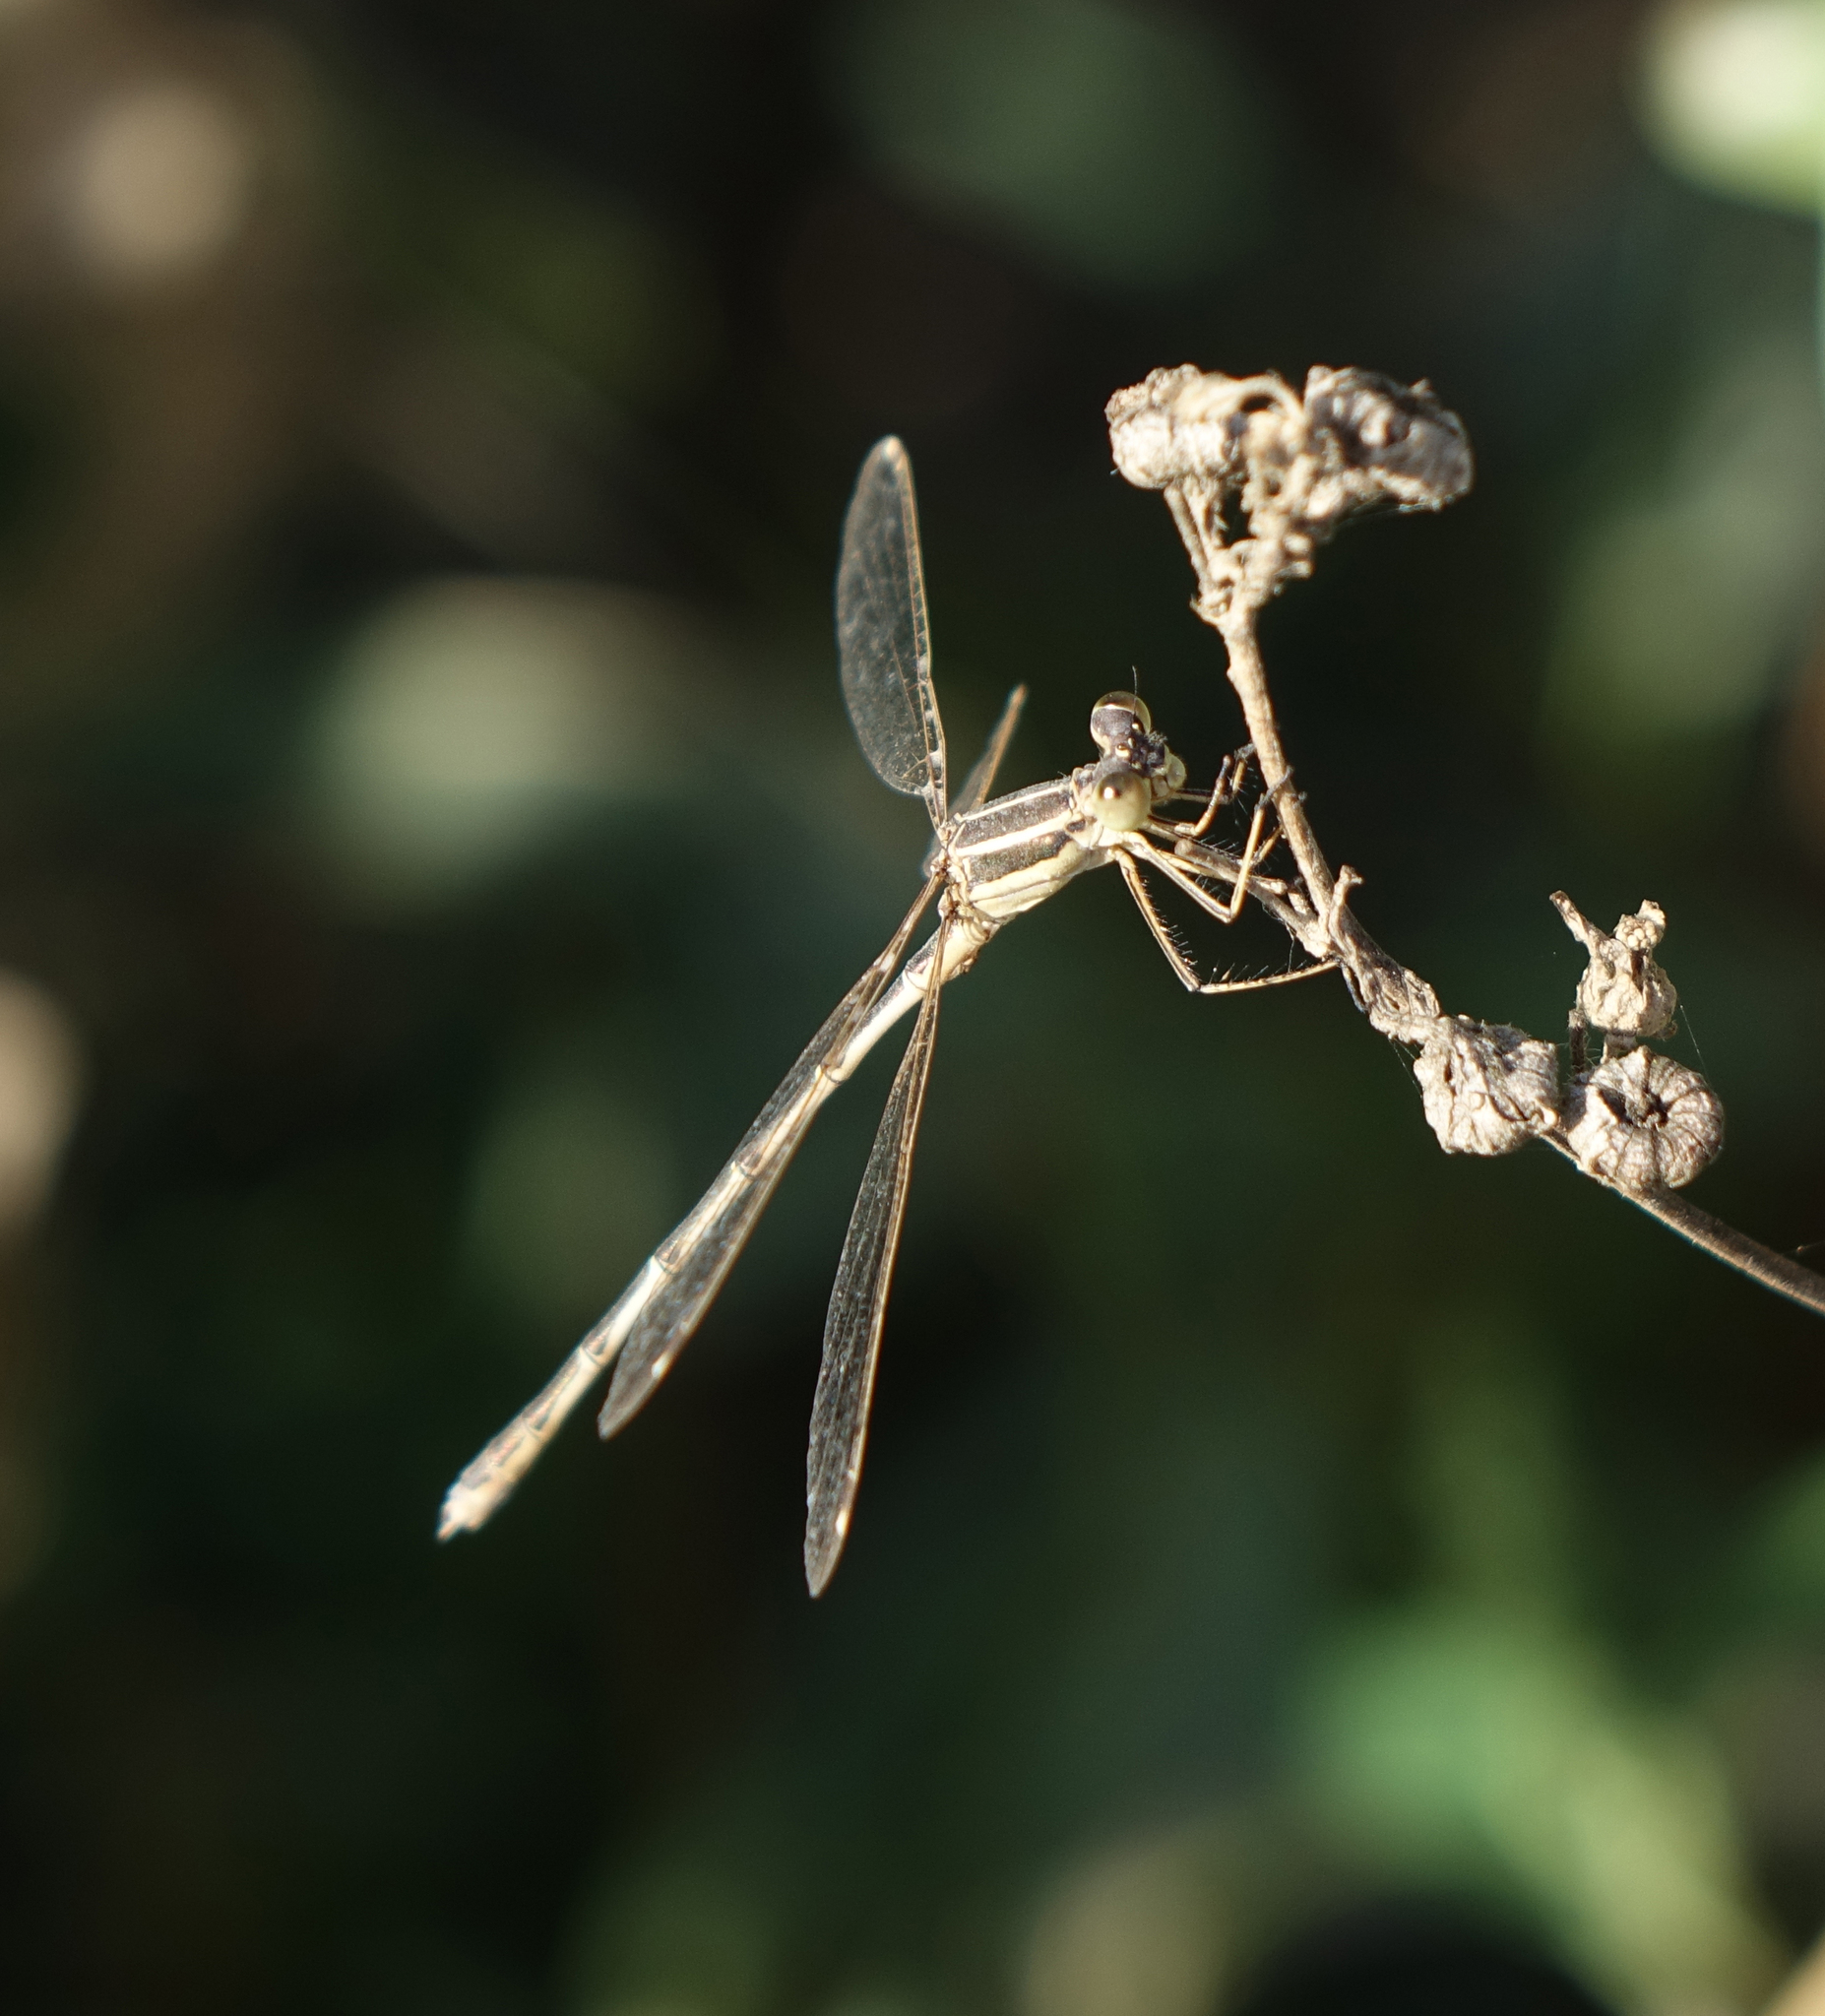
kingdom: Animalia
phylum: Arthropoda
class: Insecta
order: Odonata
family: Lestidae
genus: Lestes
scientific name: Lestes barbarus
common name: Migrant spreadwing
